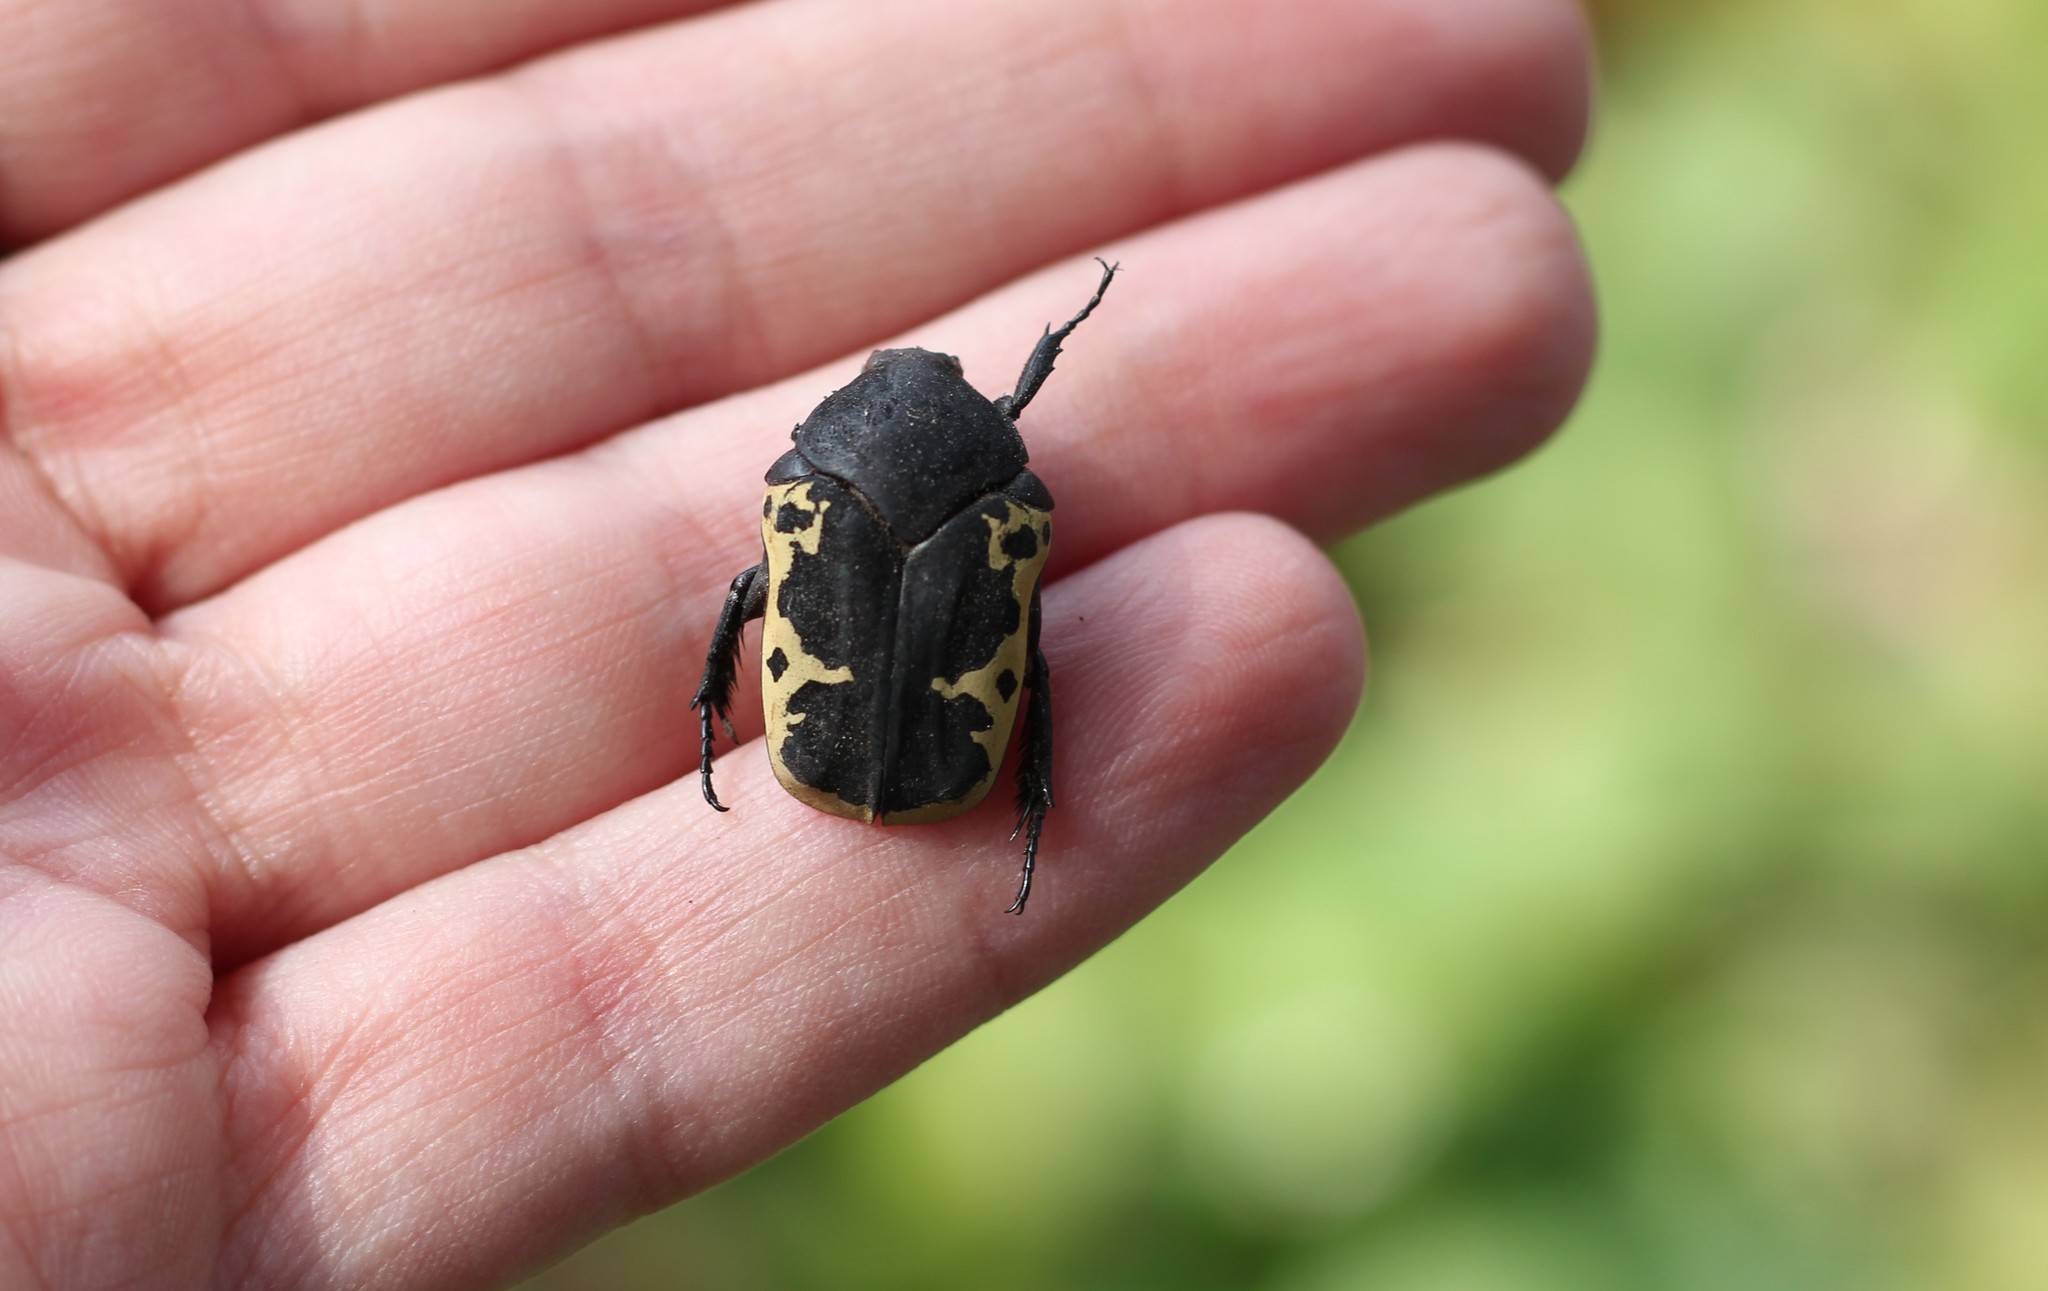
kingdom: Animalia
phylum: Arthropoda
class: Insecta
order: Coleoptera
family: Scarabaeidae
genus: Gymnetis
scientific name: Gymnetis pudibunda
